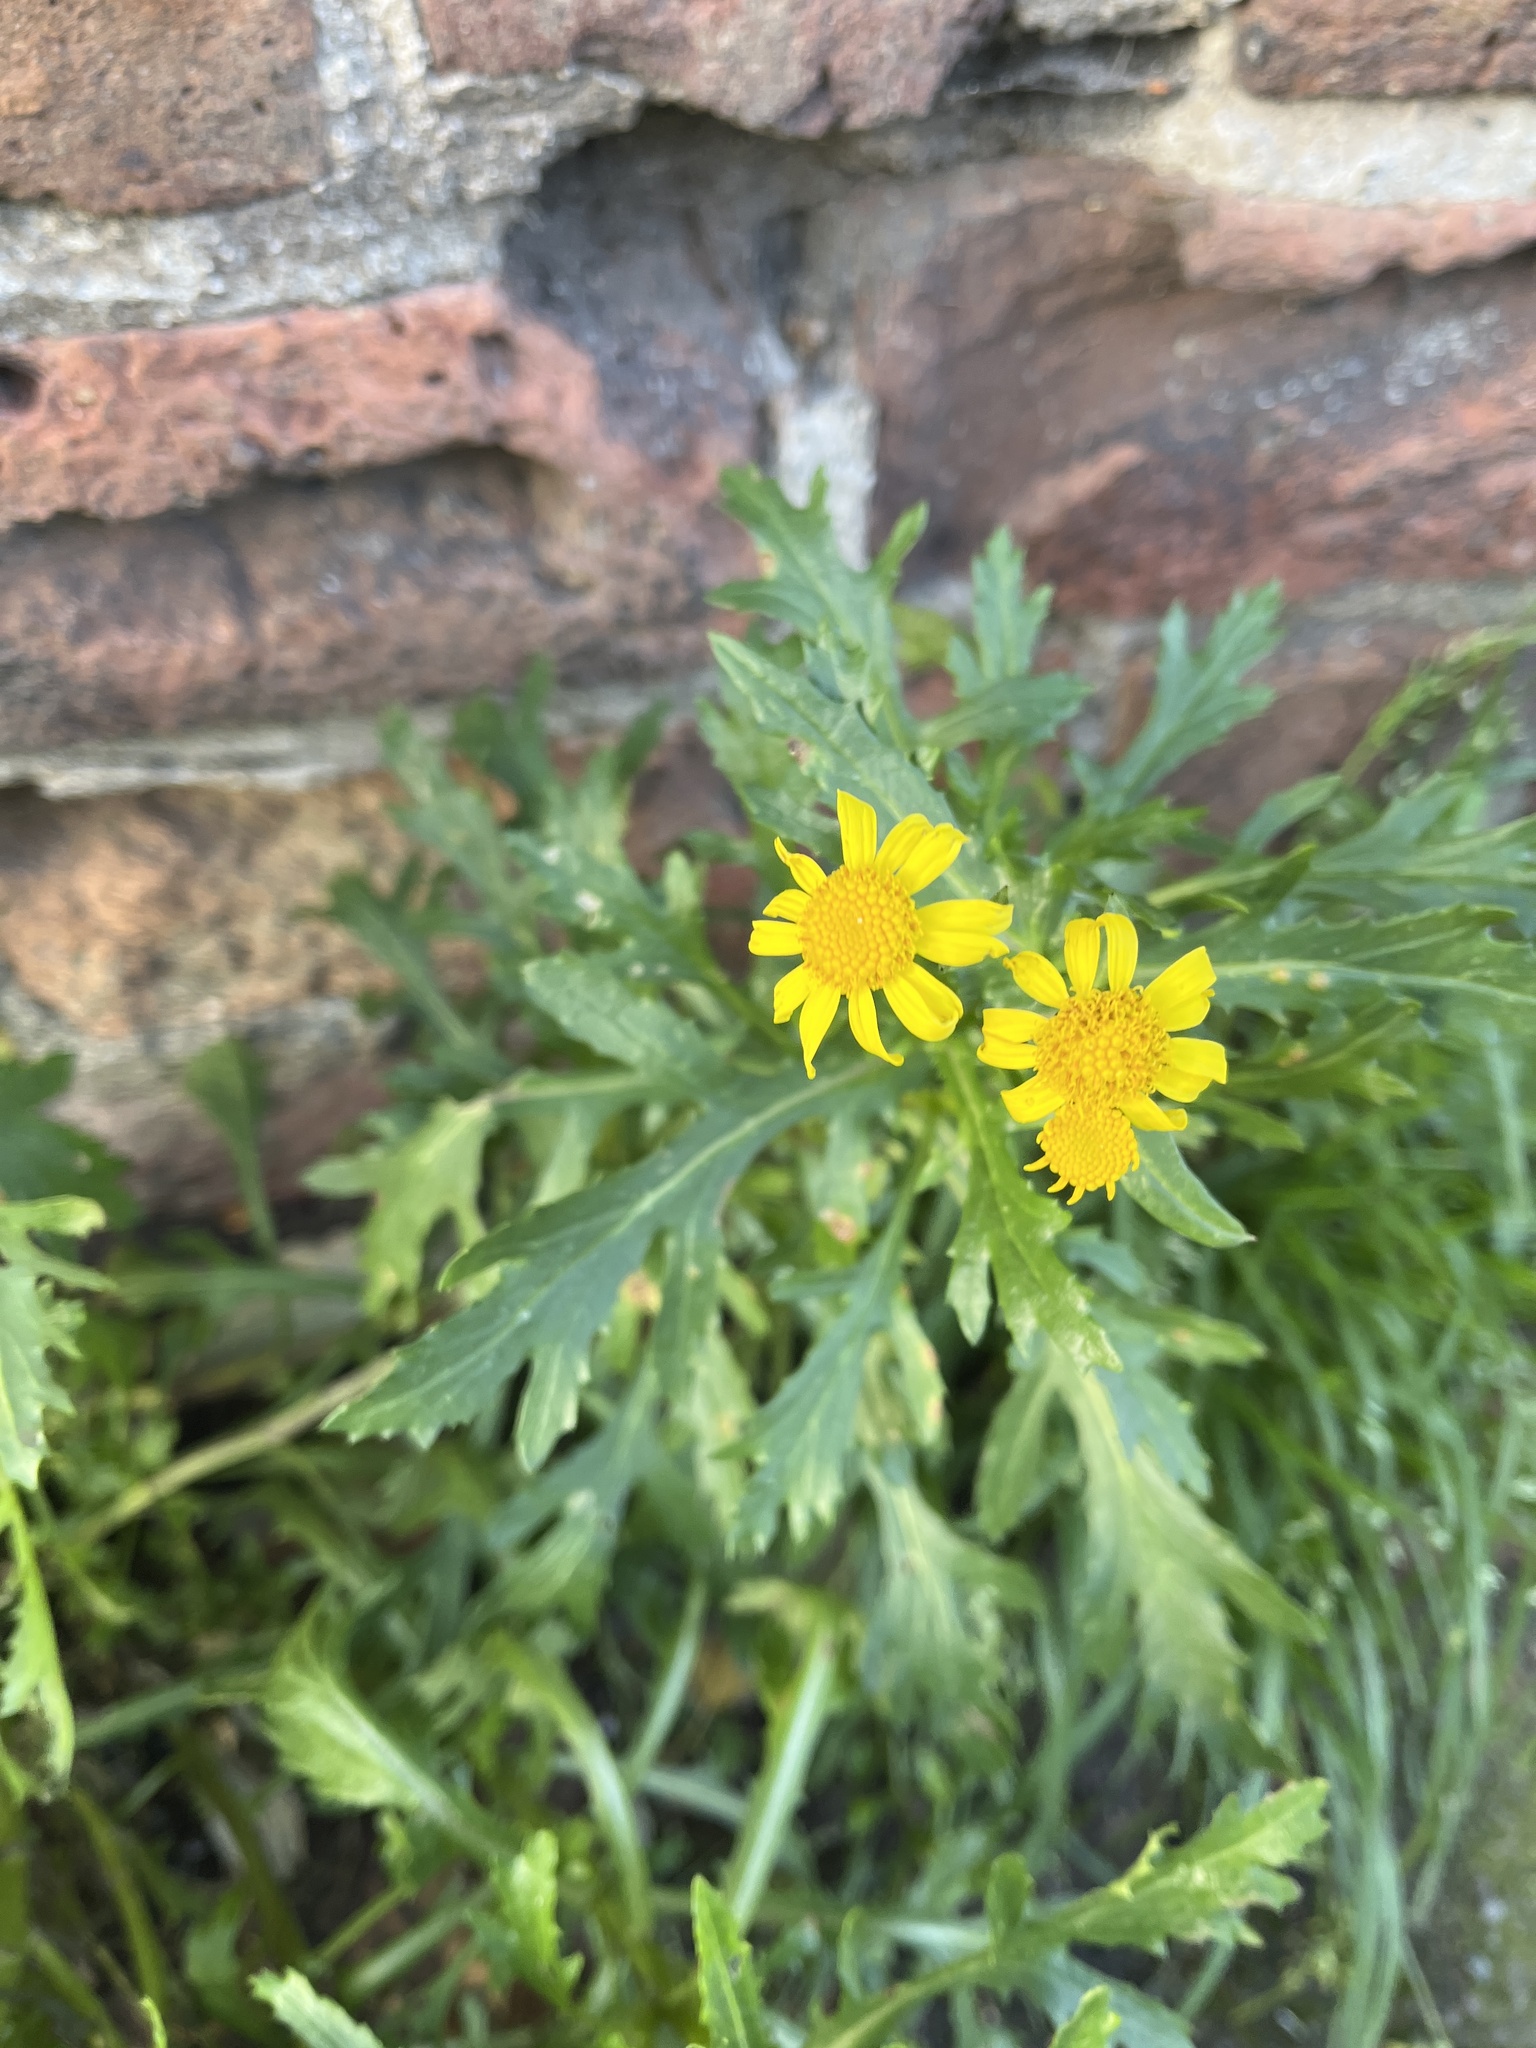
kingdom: Plantae
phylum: Tracheophyta
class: Magnoliopsida
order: Asterales
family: Asteraceae
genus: Senecio
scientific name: Senecio squalidus
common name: Oxford ragwort
